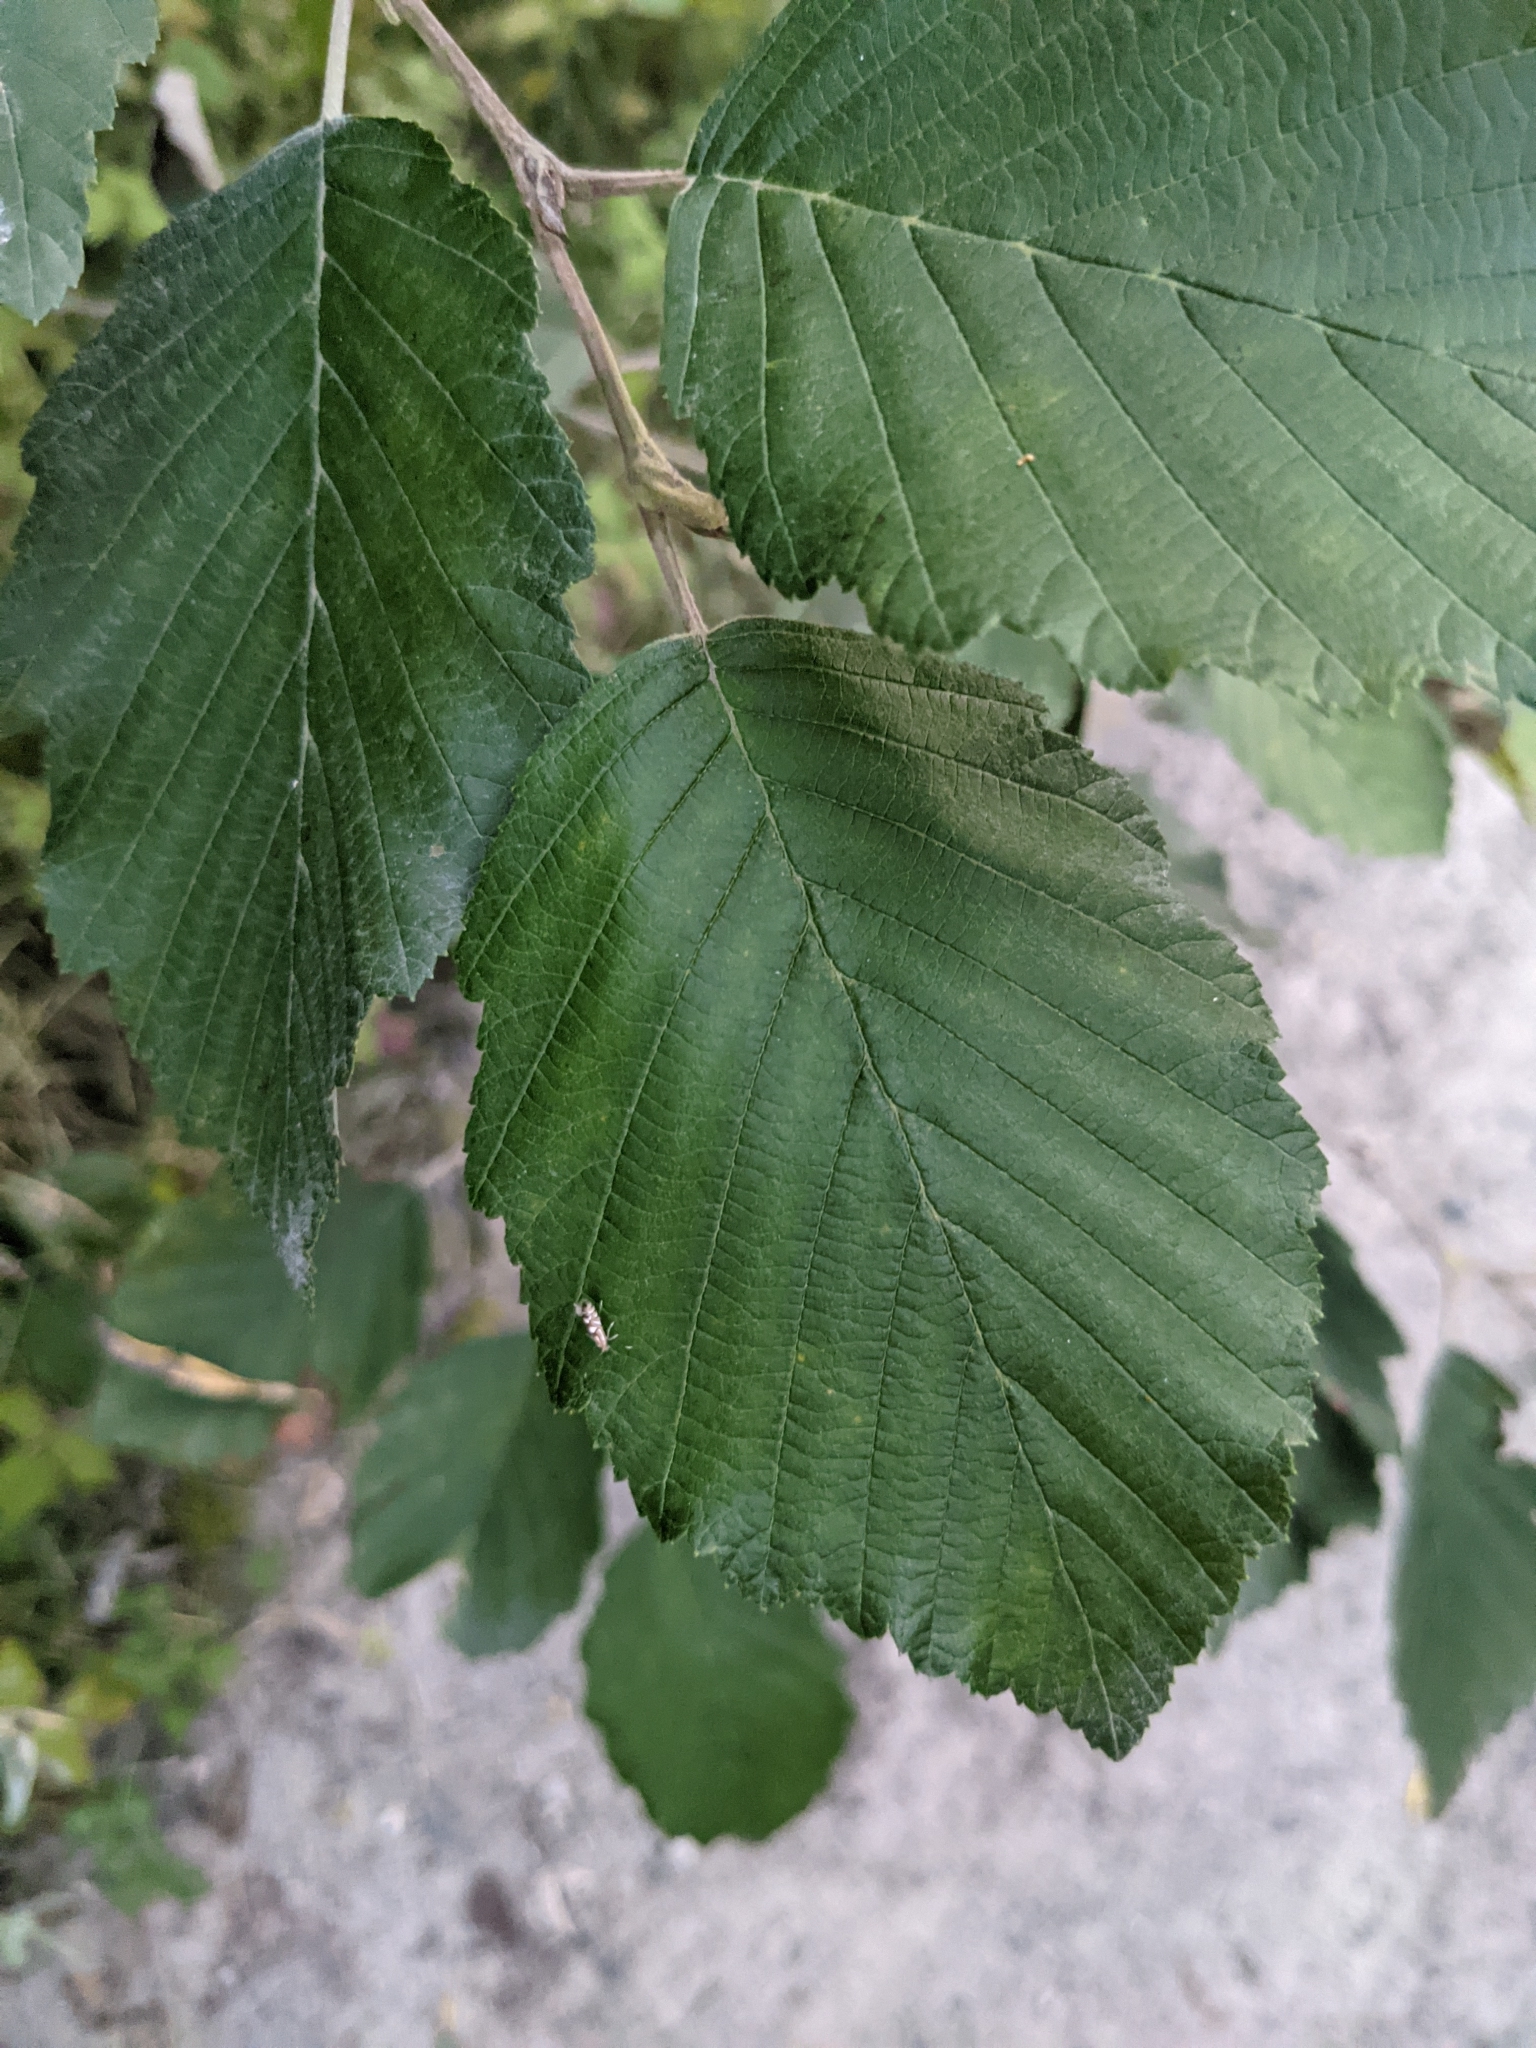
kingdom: Plantae
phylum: Tracheophyta
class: Magnoliopsida
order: Fagales
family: Betulaceae
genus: Alnus
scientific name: Alnus incana
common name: Grey alder
